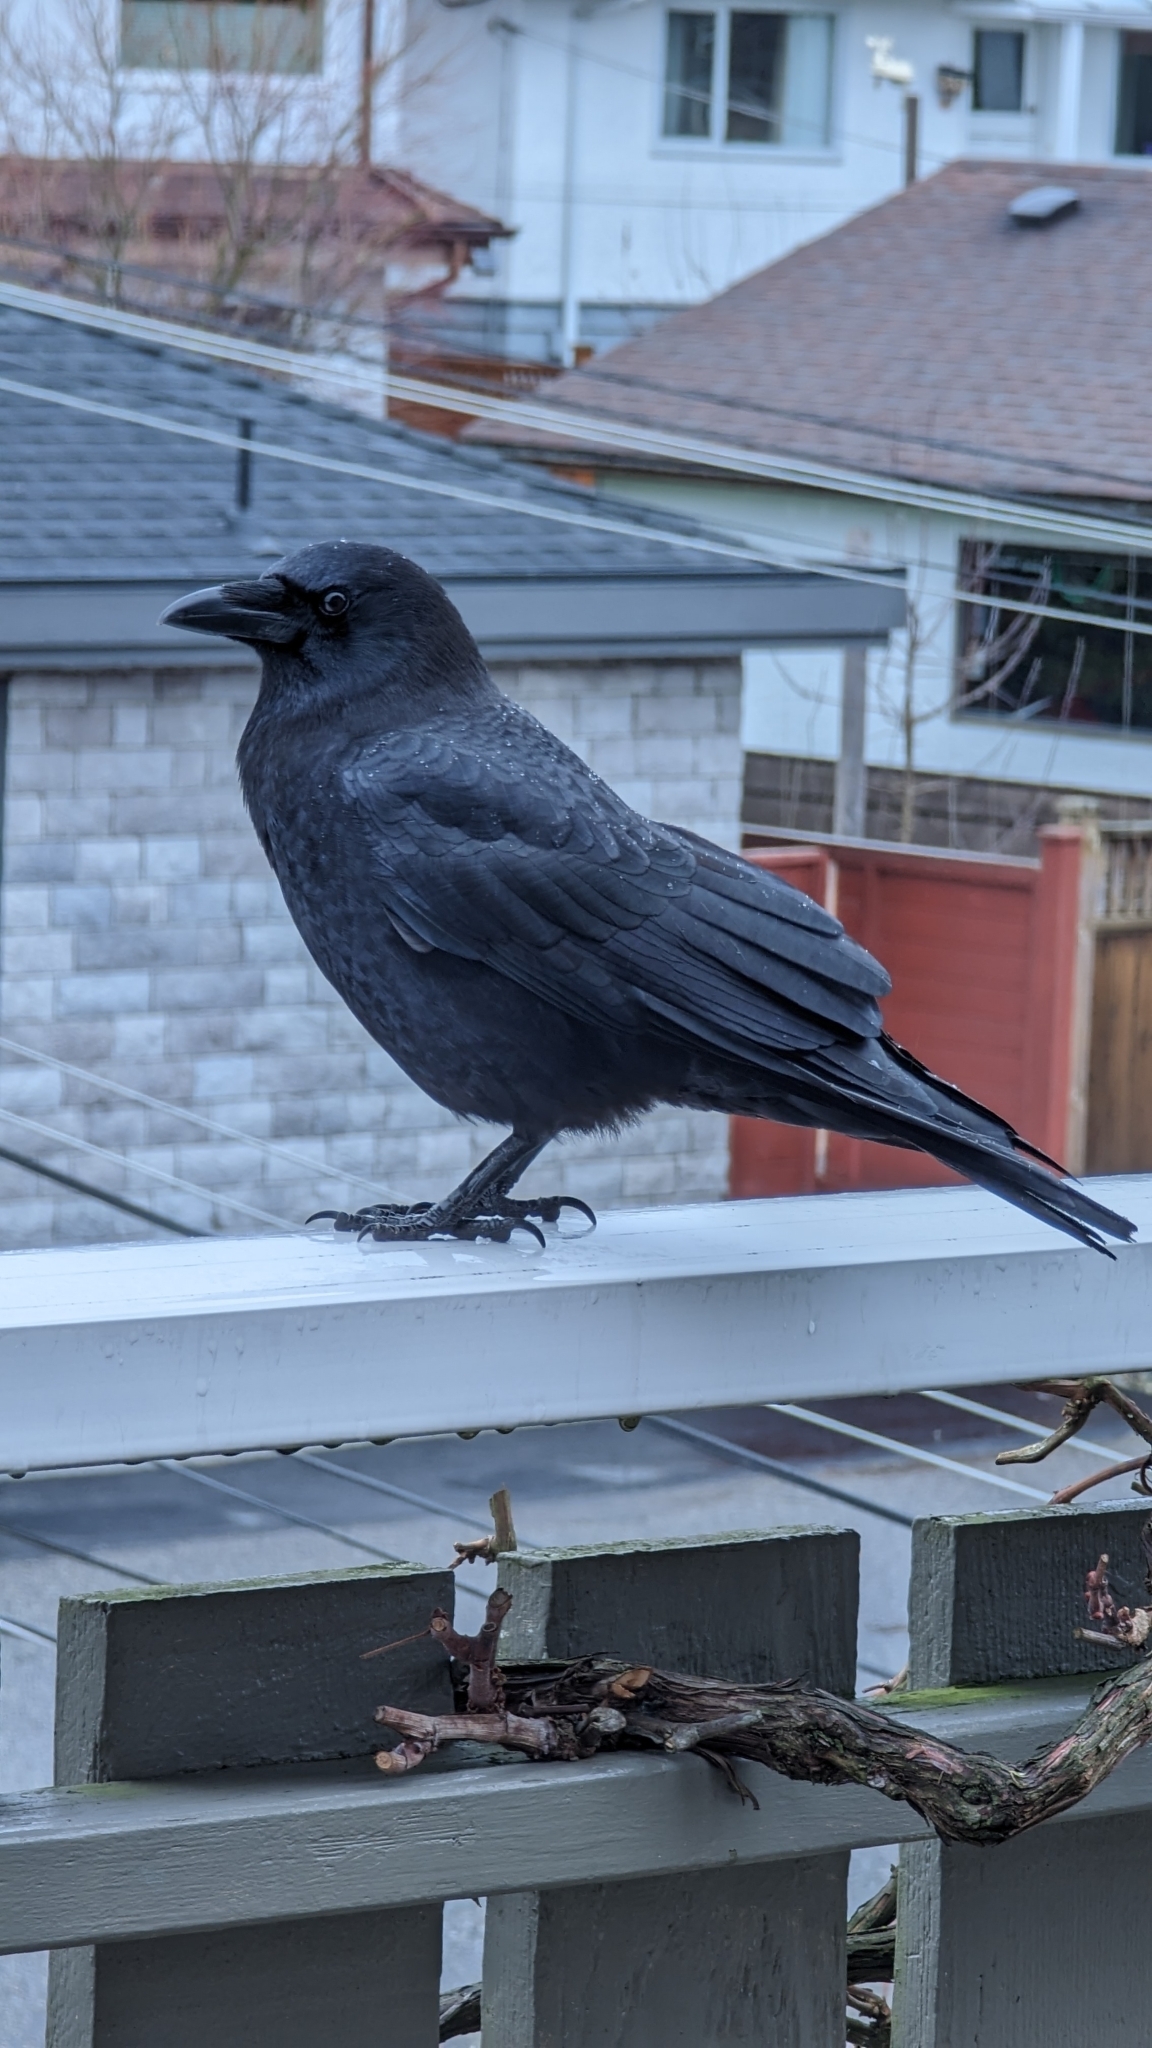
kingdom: Animalia
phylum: Chordata
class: Aves
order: Passeriformes
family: Corvidae
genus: Corvus
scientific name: Corvus brachyrhynchos
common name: American crow
